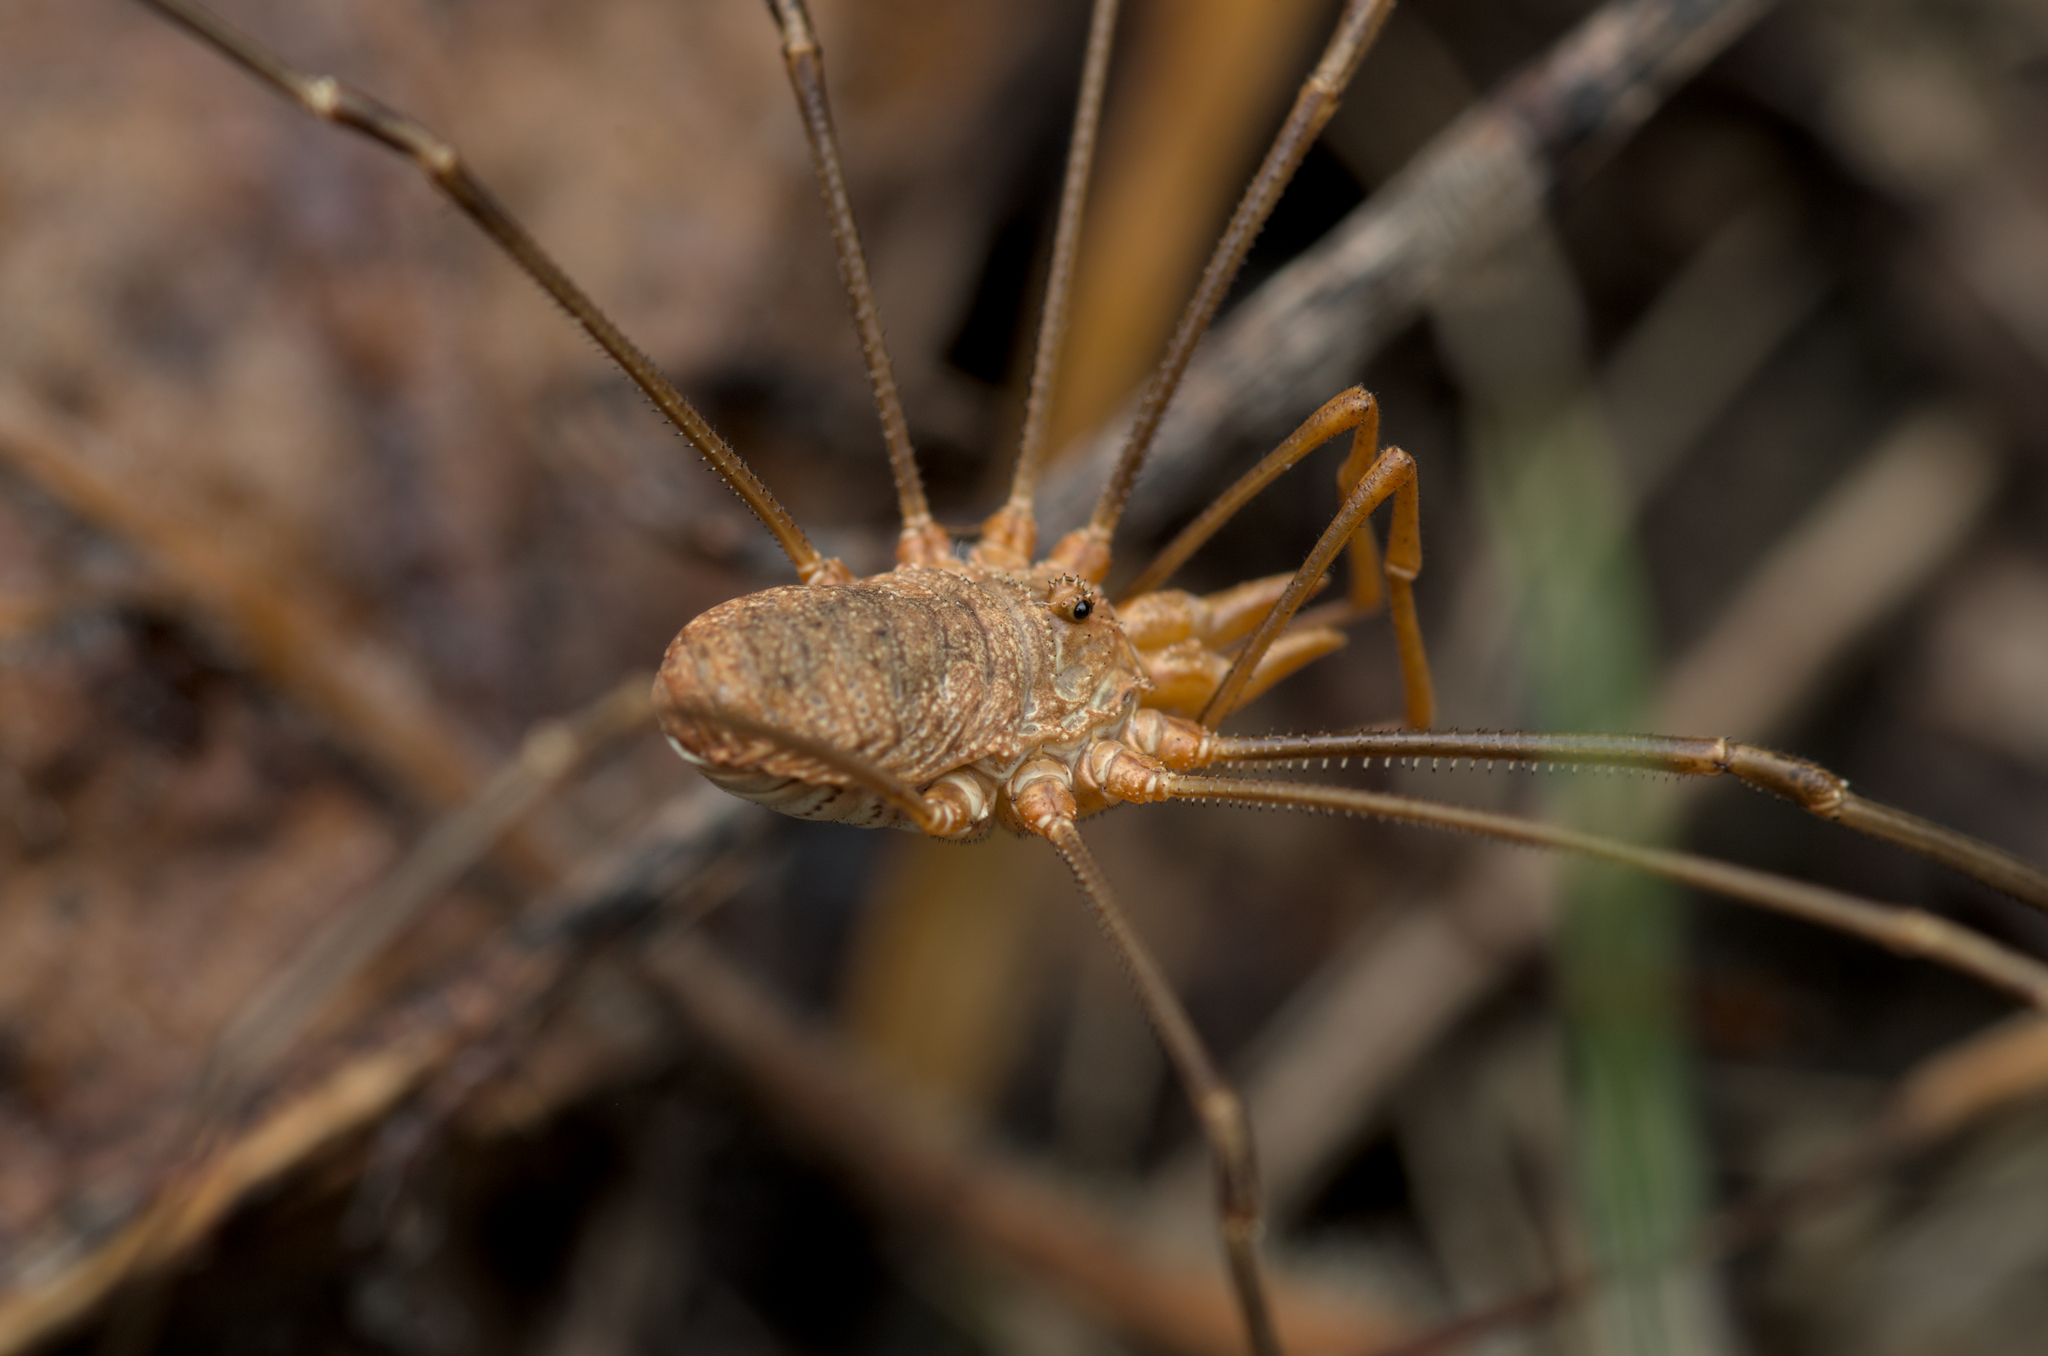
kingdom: Animalia
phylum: Arthropoda
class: Arachnida
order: Opiliones
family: Phalangiidae
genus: Phalangium
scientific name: Phalangium opilio
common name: Daddy longleg
